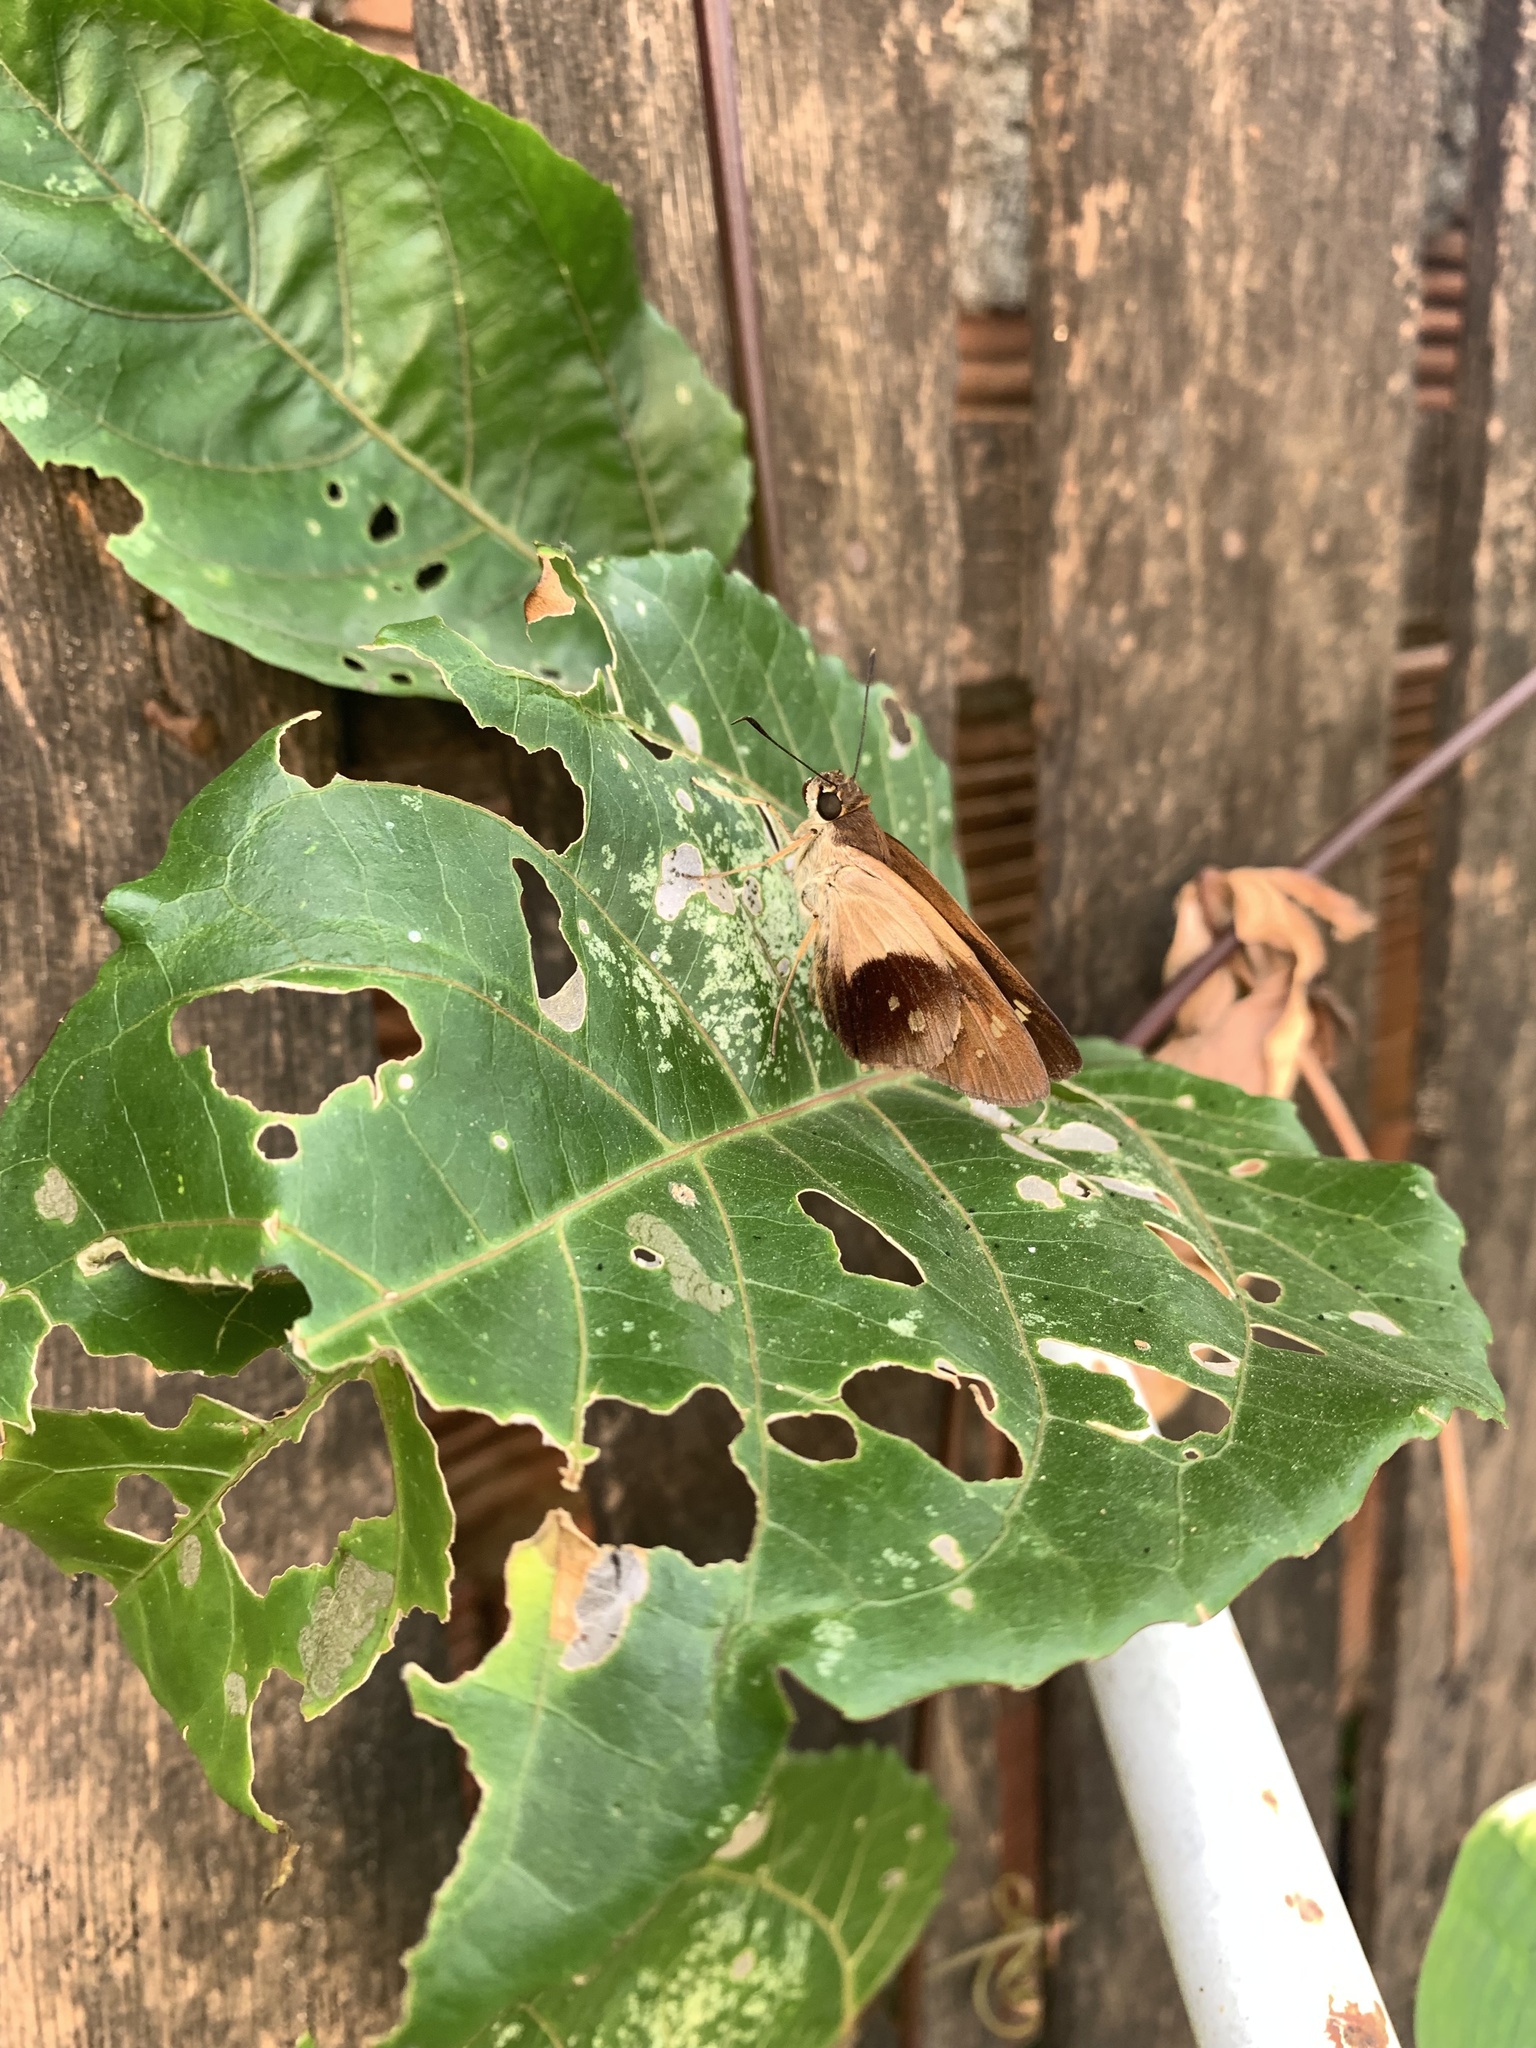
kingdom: Animalia
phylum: Arthropoda
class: Insecta
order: Lepidoptera
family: Hesperiidae
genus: Calpodes
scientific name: Calpodes
